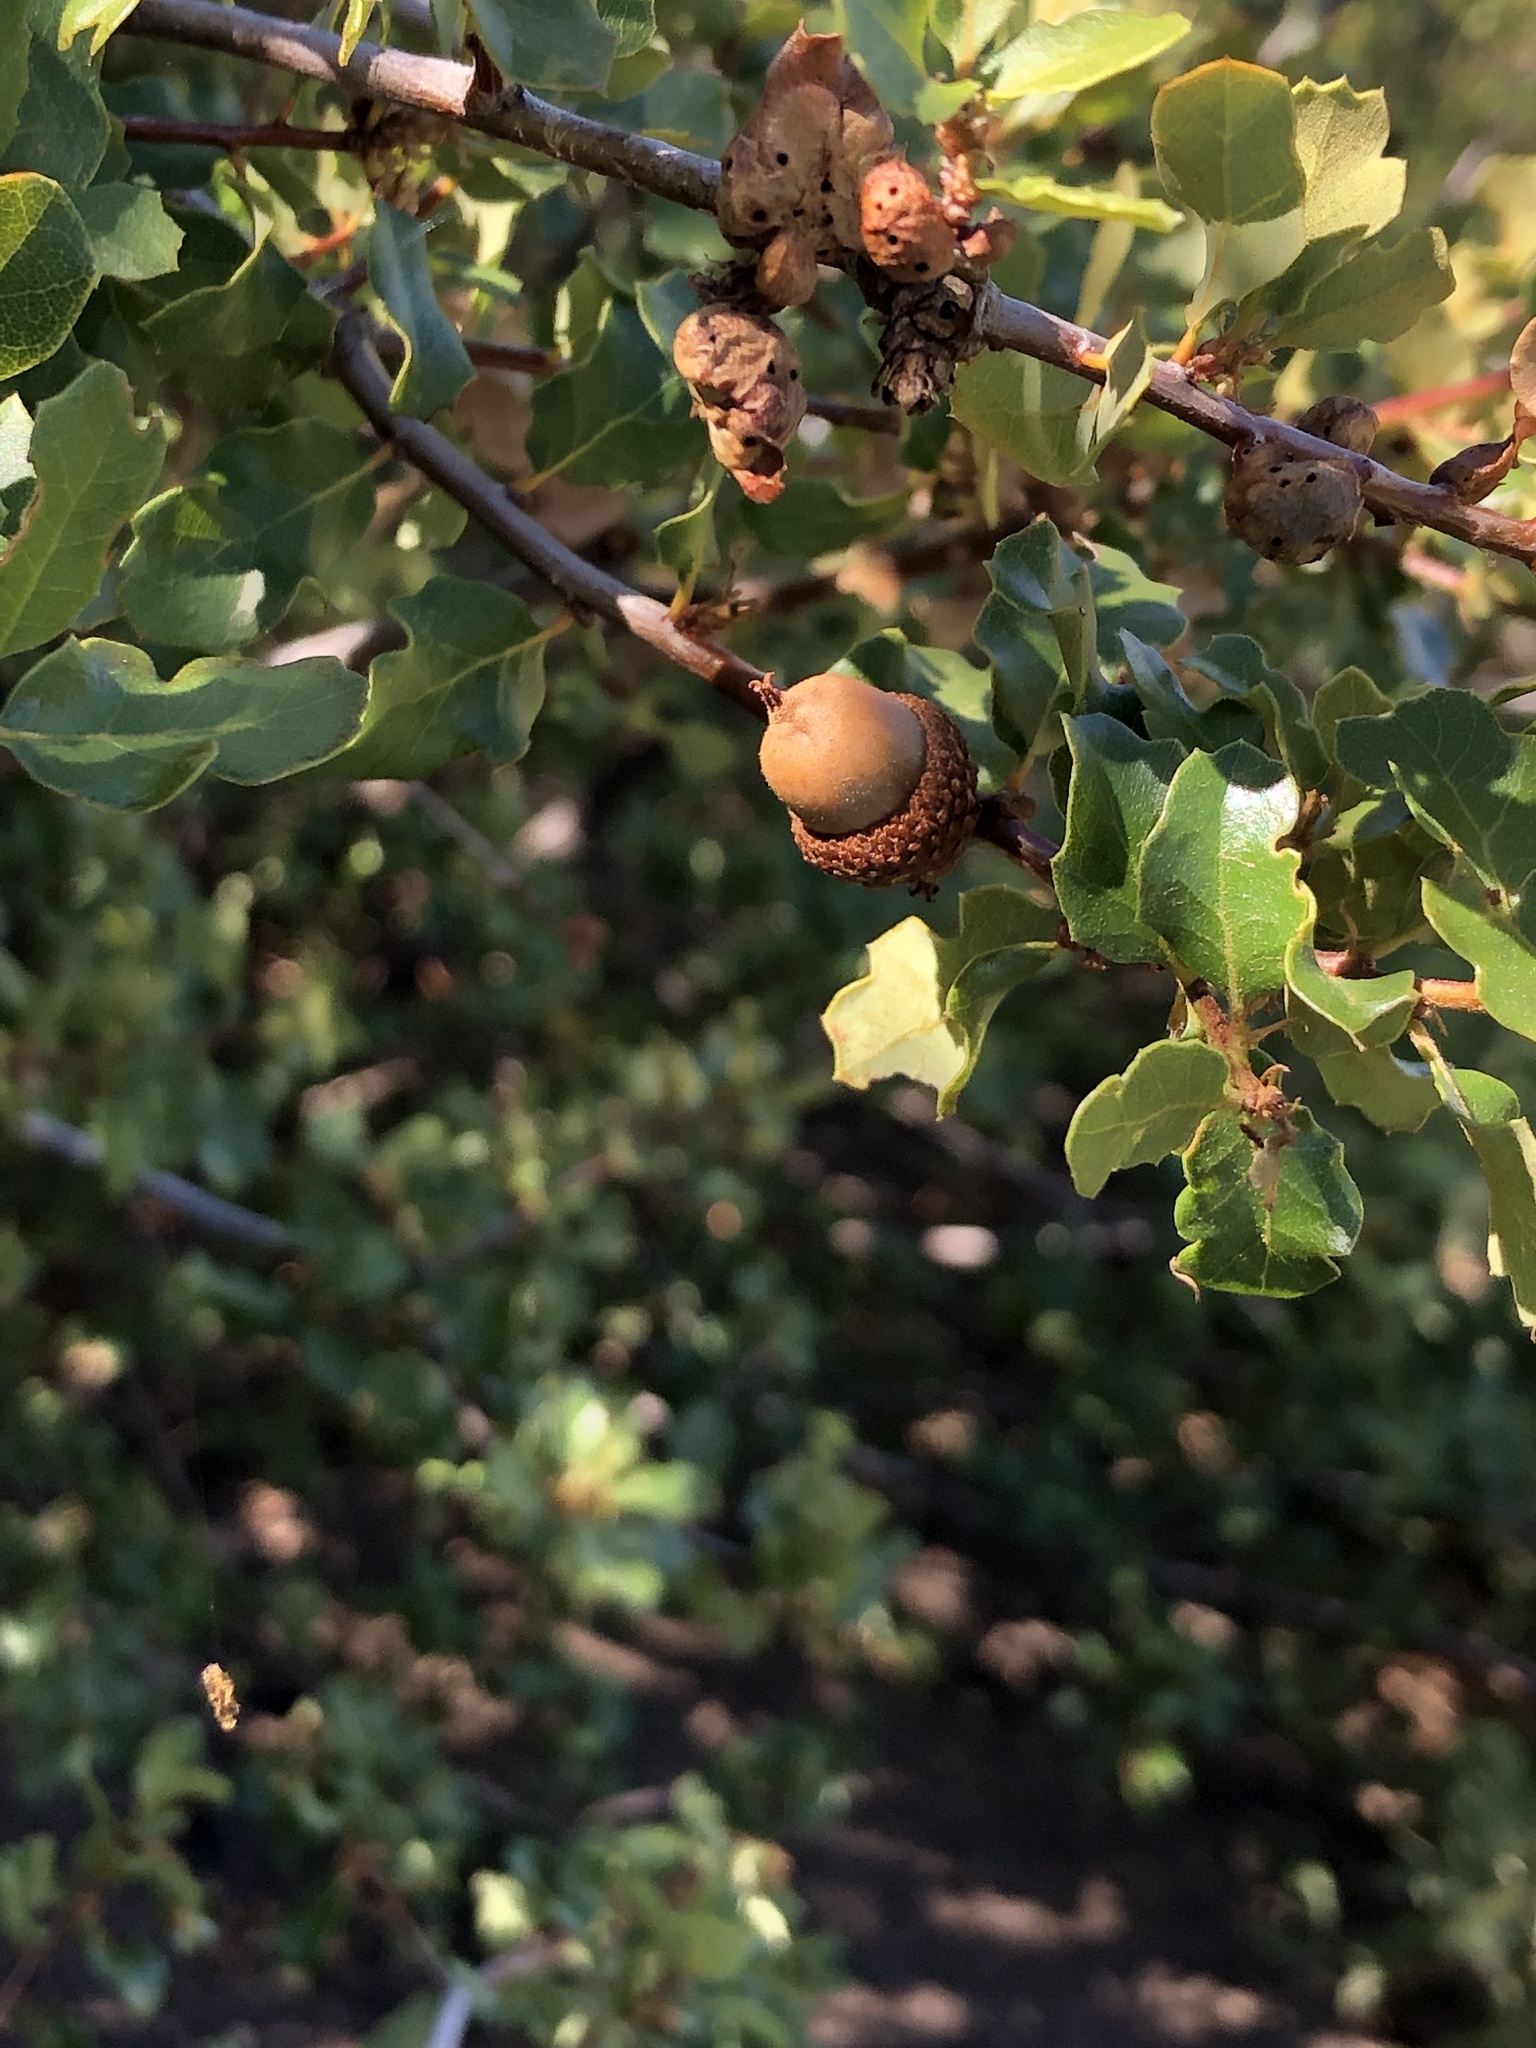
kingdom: Animalia
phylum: Arthropoda
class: Insecta
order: Hymenoptera
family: Cynipidae
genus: Neuroterus
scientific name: Neuroterus
